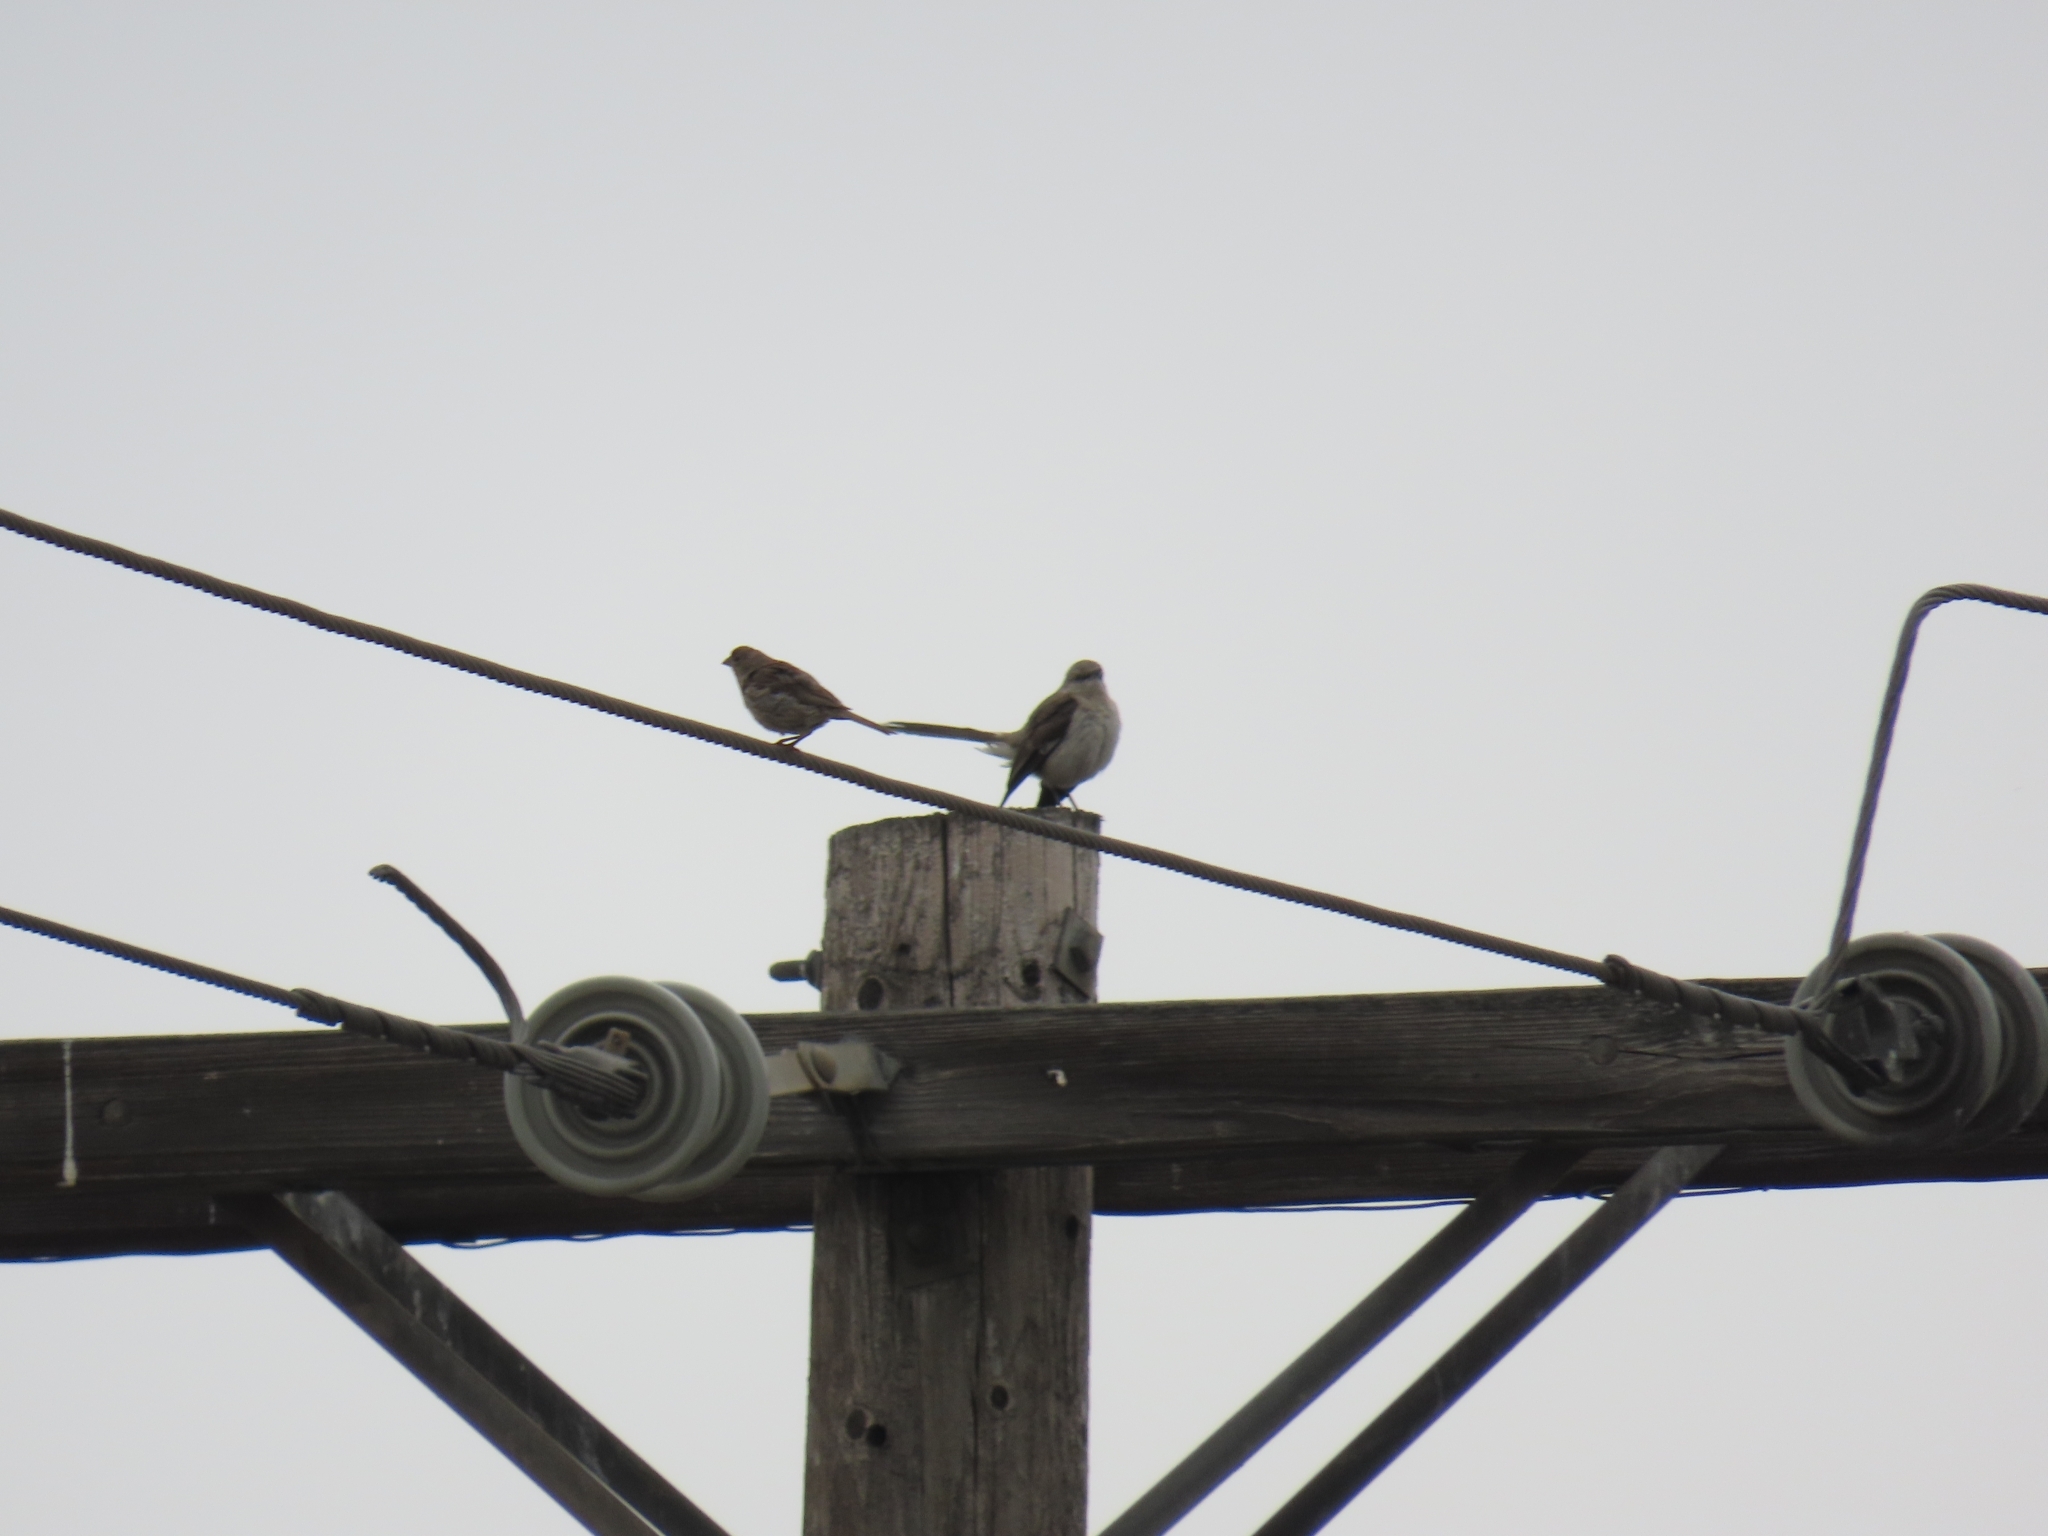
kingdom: Animalia
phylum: Chordata
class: Aves
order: Passeriformes
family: Mimidae
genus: Mimus
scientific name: Mimus polyglottos
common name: Northern mockingbird
